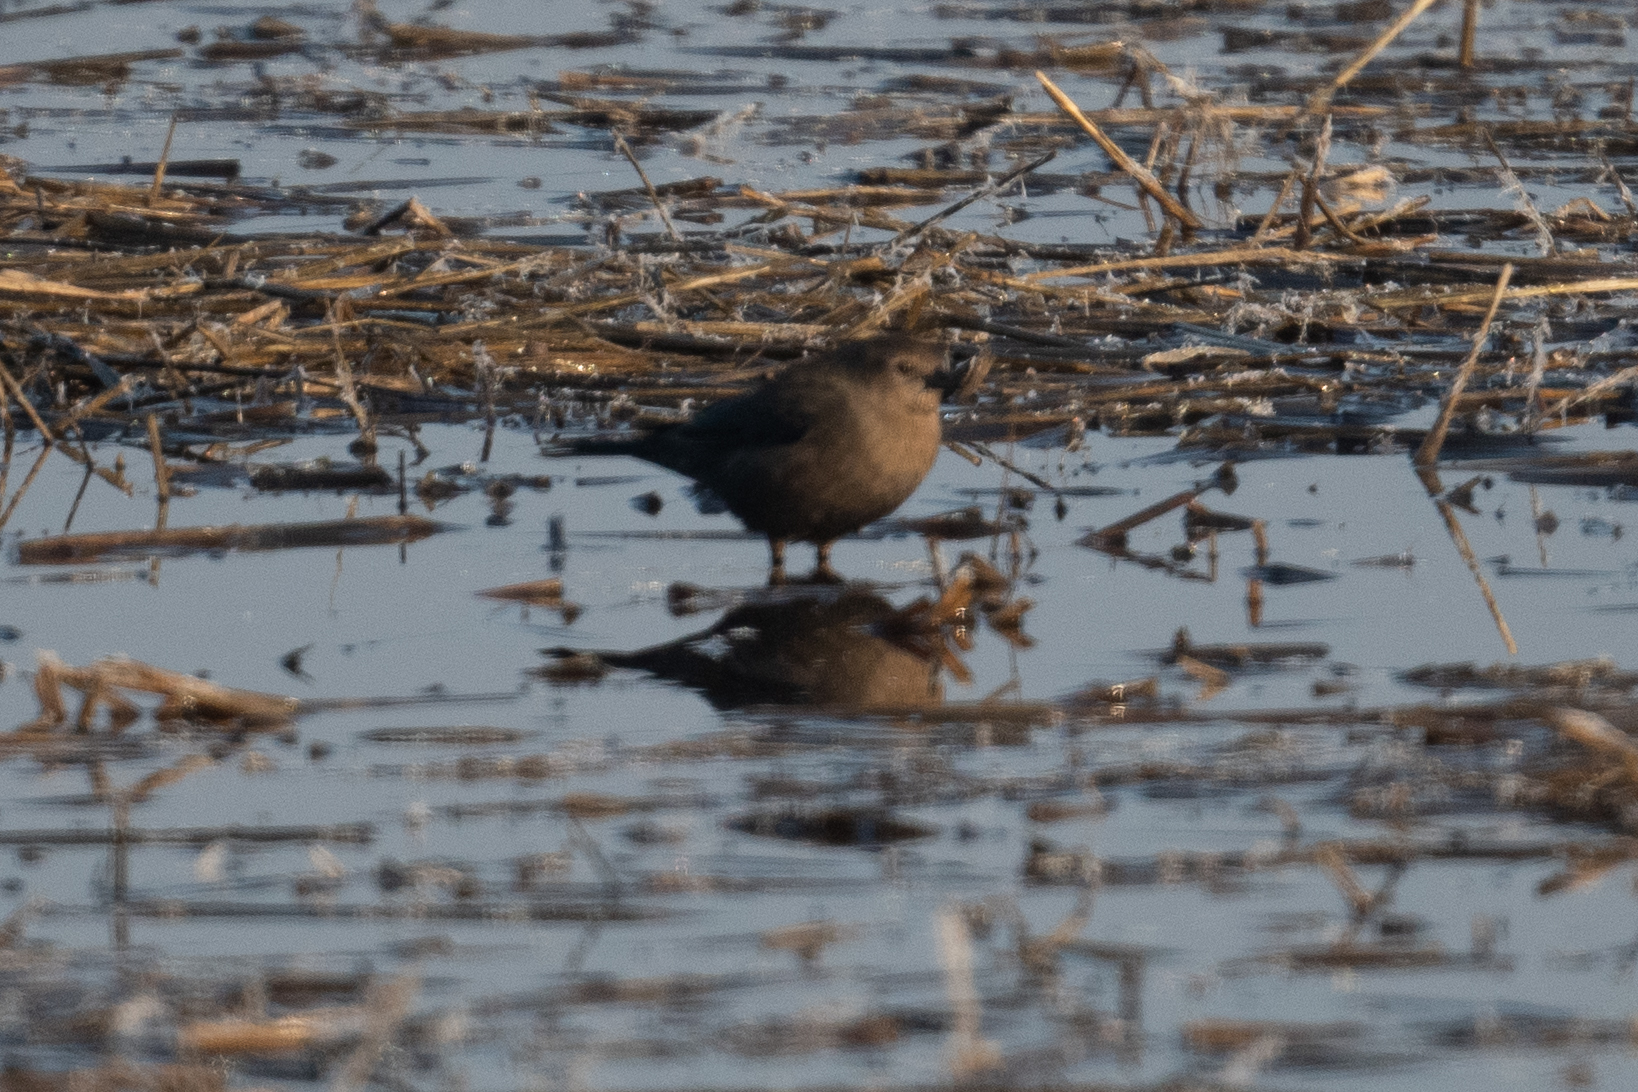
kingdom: Animalia
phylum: Chordata
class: Aves
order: Passeriformes
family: Icteridae
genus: Euphagus
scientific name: Euphagus cyanocephalus
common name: Brewer's blackbird
